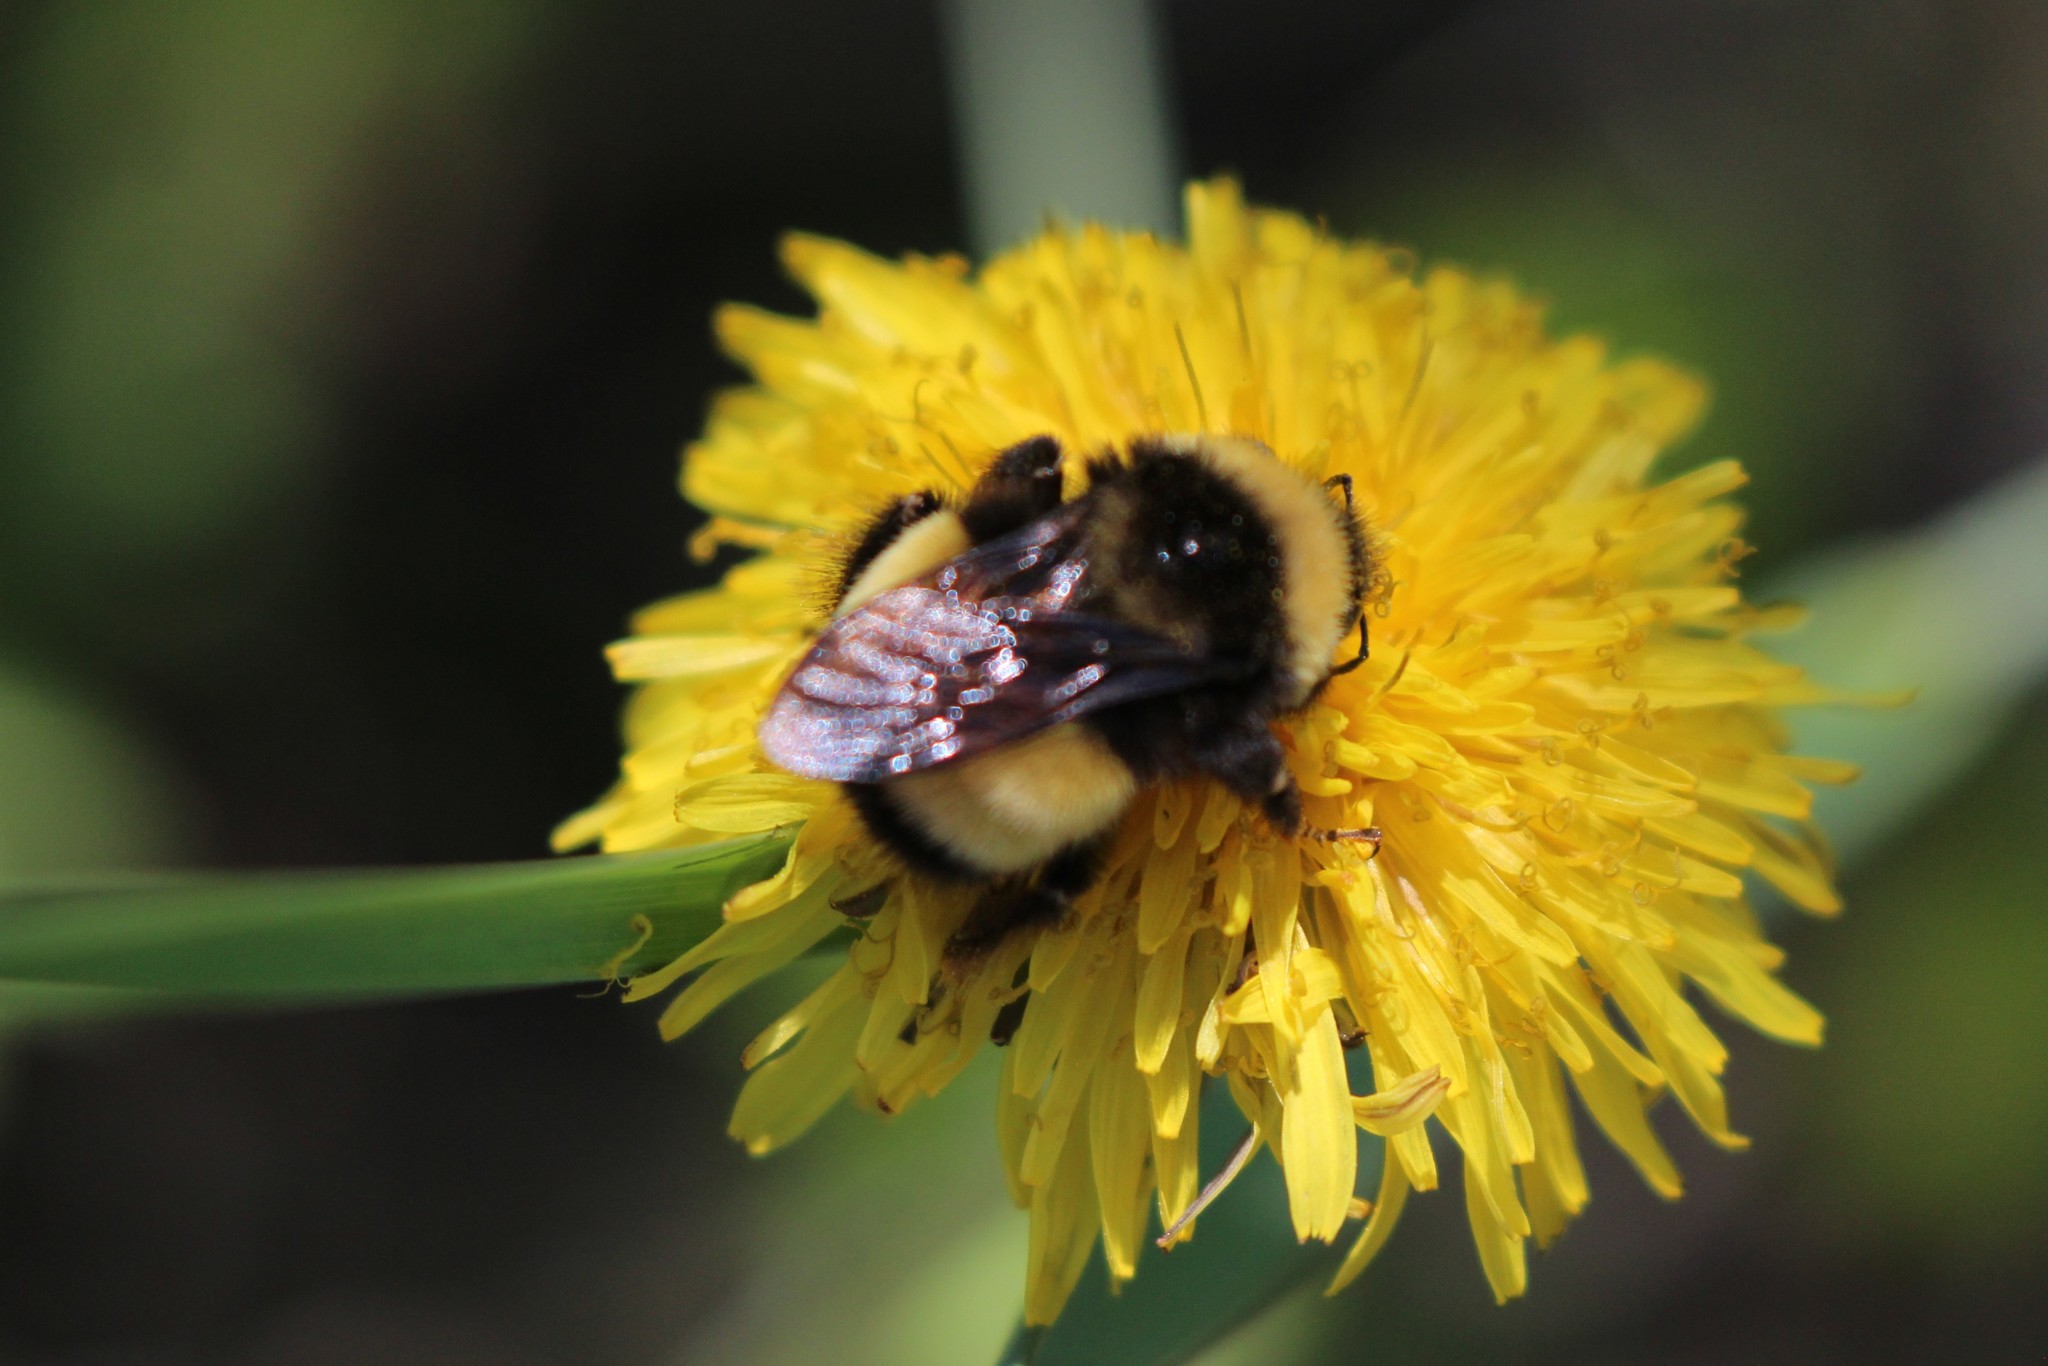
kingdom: Animalia
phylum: Arthropoda
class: Insecta
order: Hymenoptera
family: Apidae
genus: Bombus
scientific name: Bombus terricola
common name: Yellow-banded bumble bee
